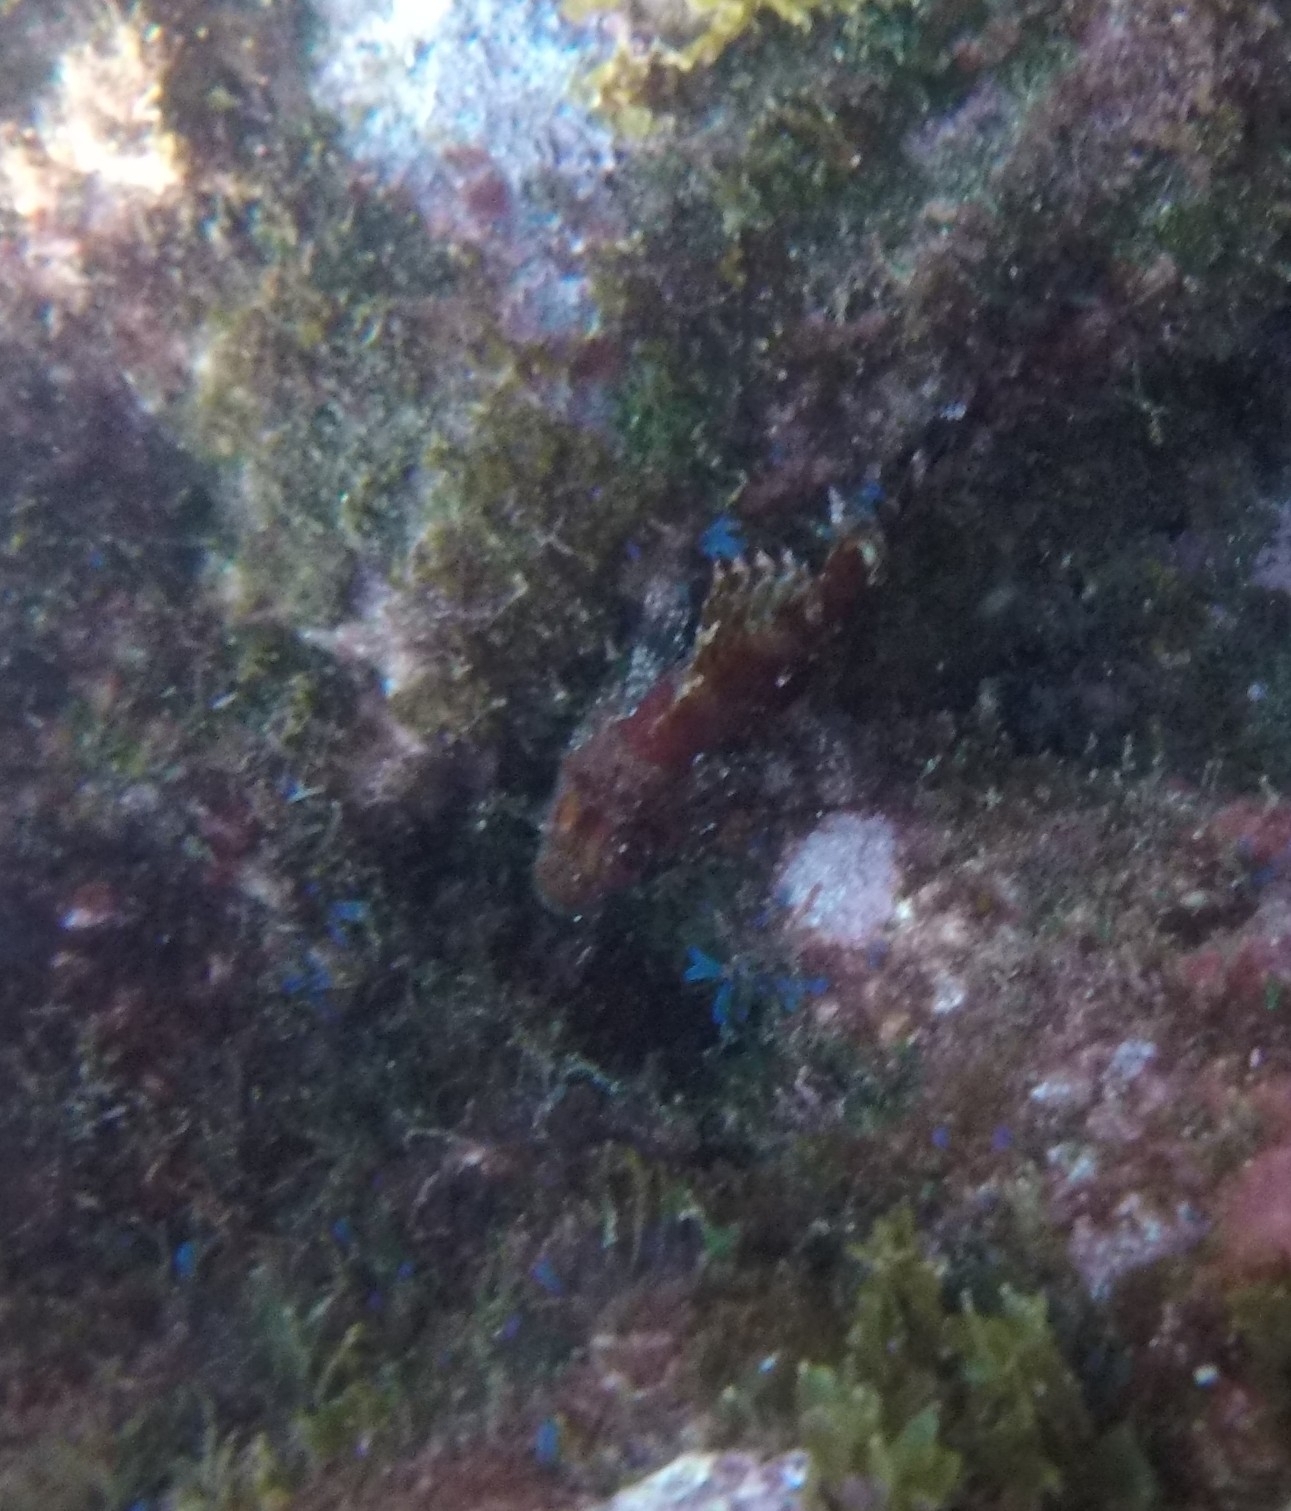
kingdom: Animalia
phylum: Chordata
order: Scorpaeniformes
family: Scorpaenidae
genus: Scorpaena
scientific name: Scorpaena maderensis
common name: Madeira rockfish
